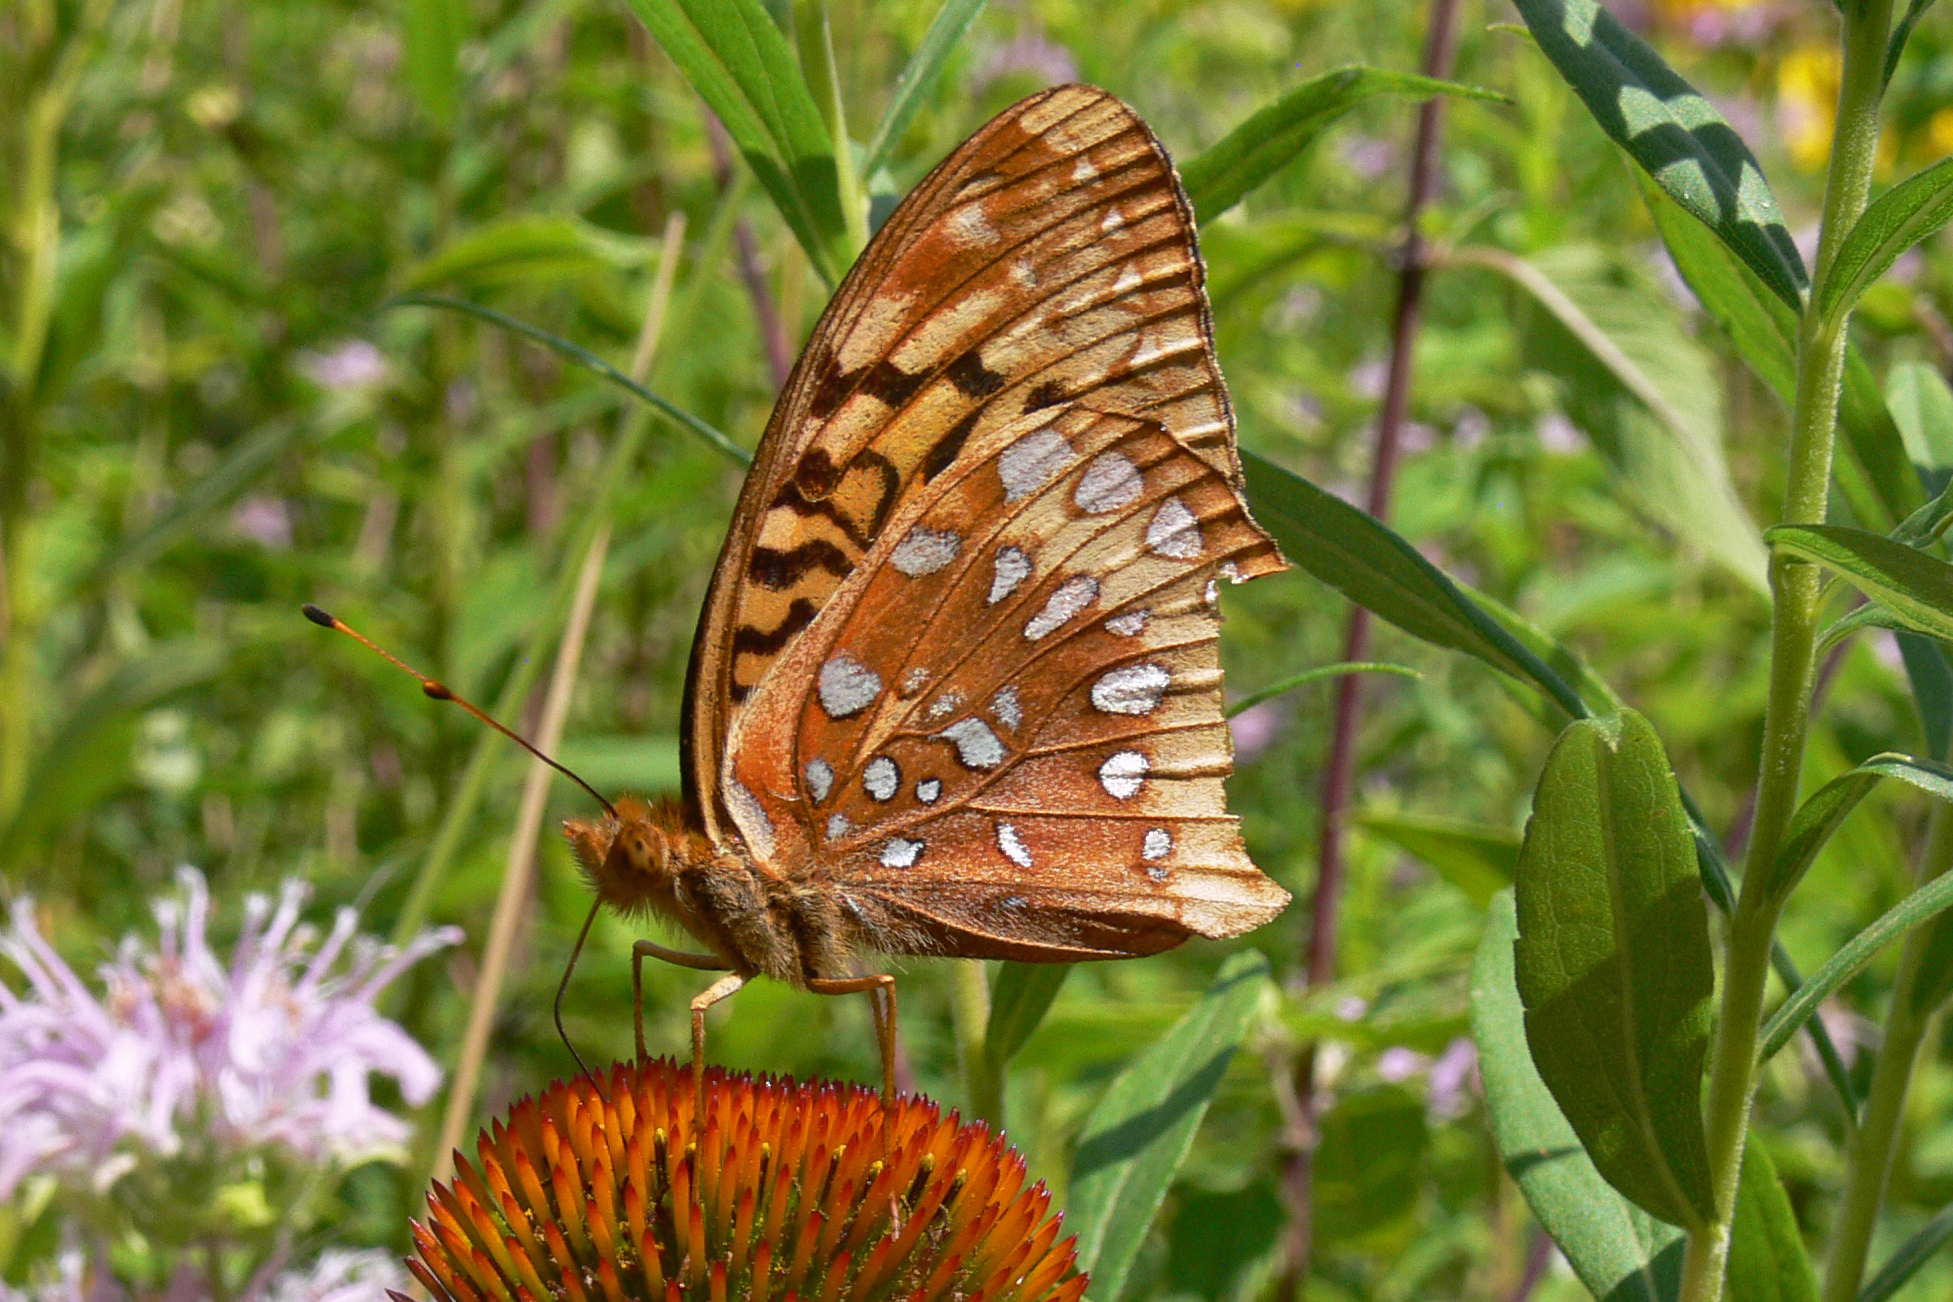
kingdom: Animalia
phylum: Arthropoda
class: Insecta
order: Lepidoptera
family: Nymphalidae
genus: Speyeria
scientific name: Speyeria cybele
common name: Great spangled fritillary
